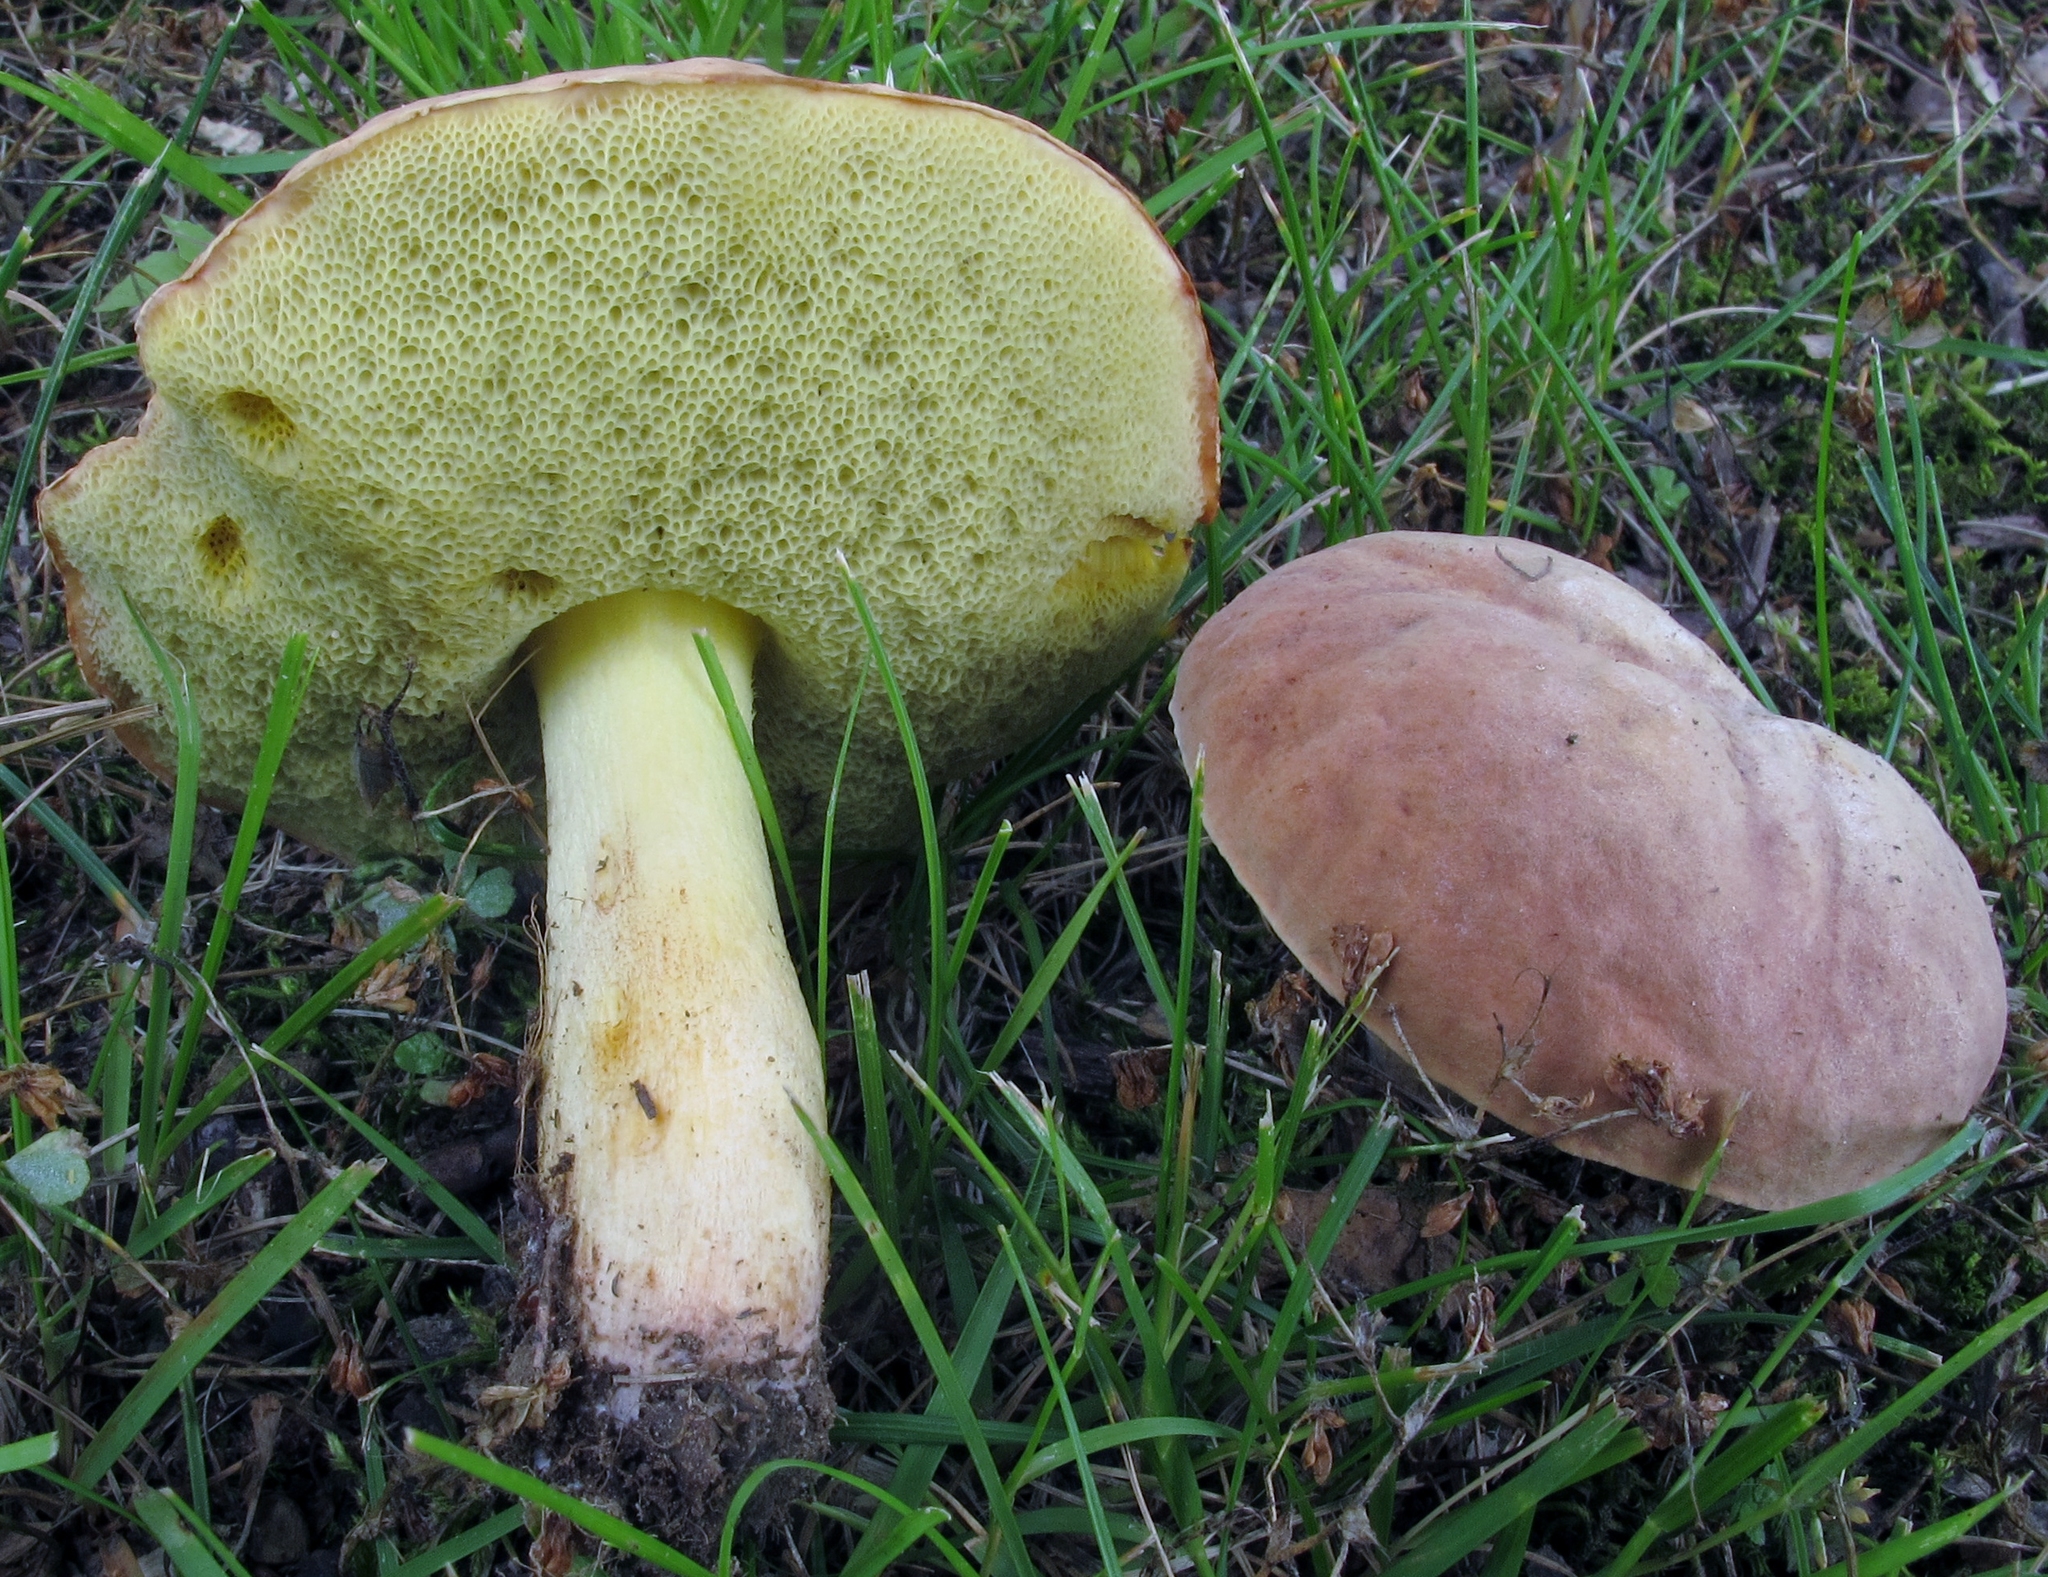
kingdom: Fungi
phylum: Basidiomycota
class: Agaricomycetes
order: Boletales
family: Boletaceae
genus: Hemileccinum
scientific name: Hemileccinum subglabripes
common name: Smoothish-stemmed bolete
